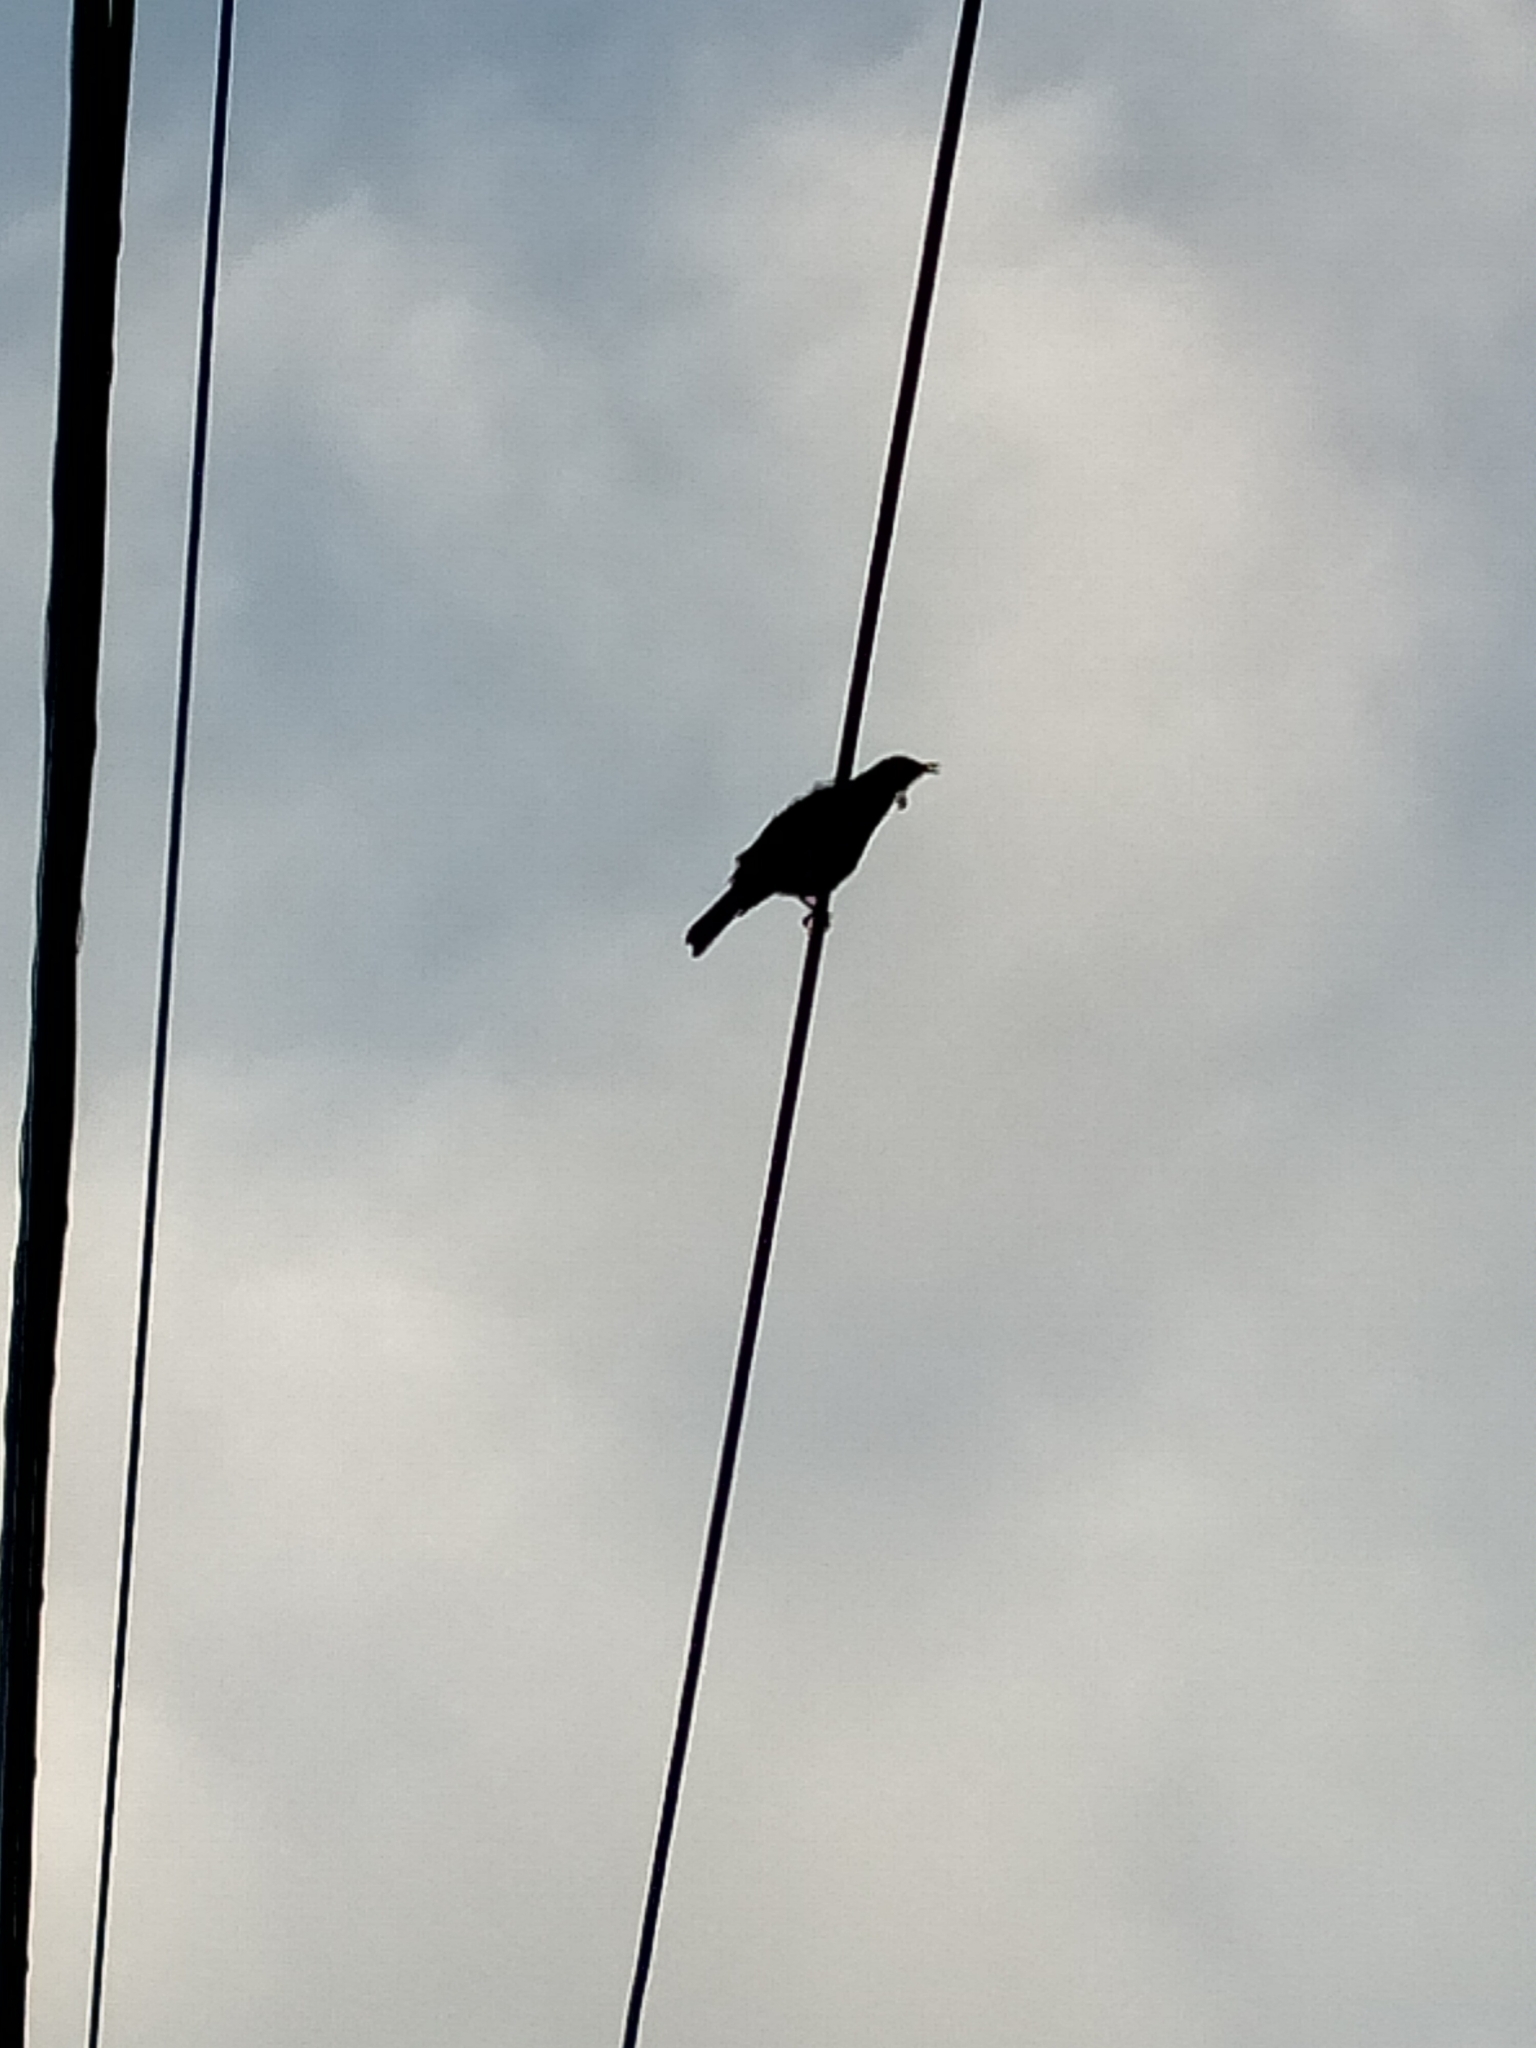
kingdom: Animalia
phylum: Chordata
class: Aves
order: Passeriformes
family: Meliphagidae
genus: Prosthemadera
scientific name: Prosthemadera novaeseelandiae
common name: Tui
